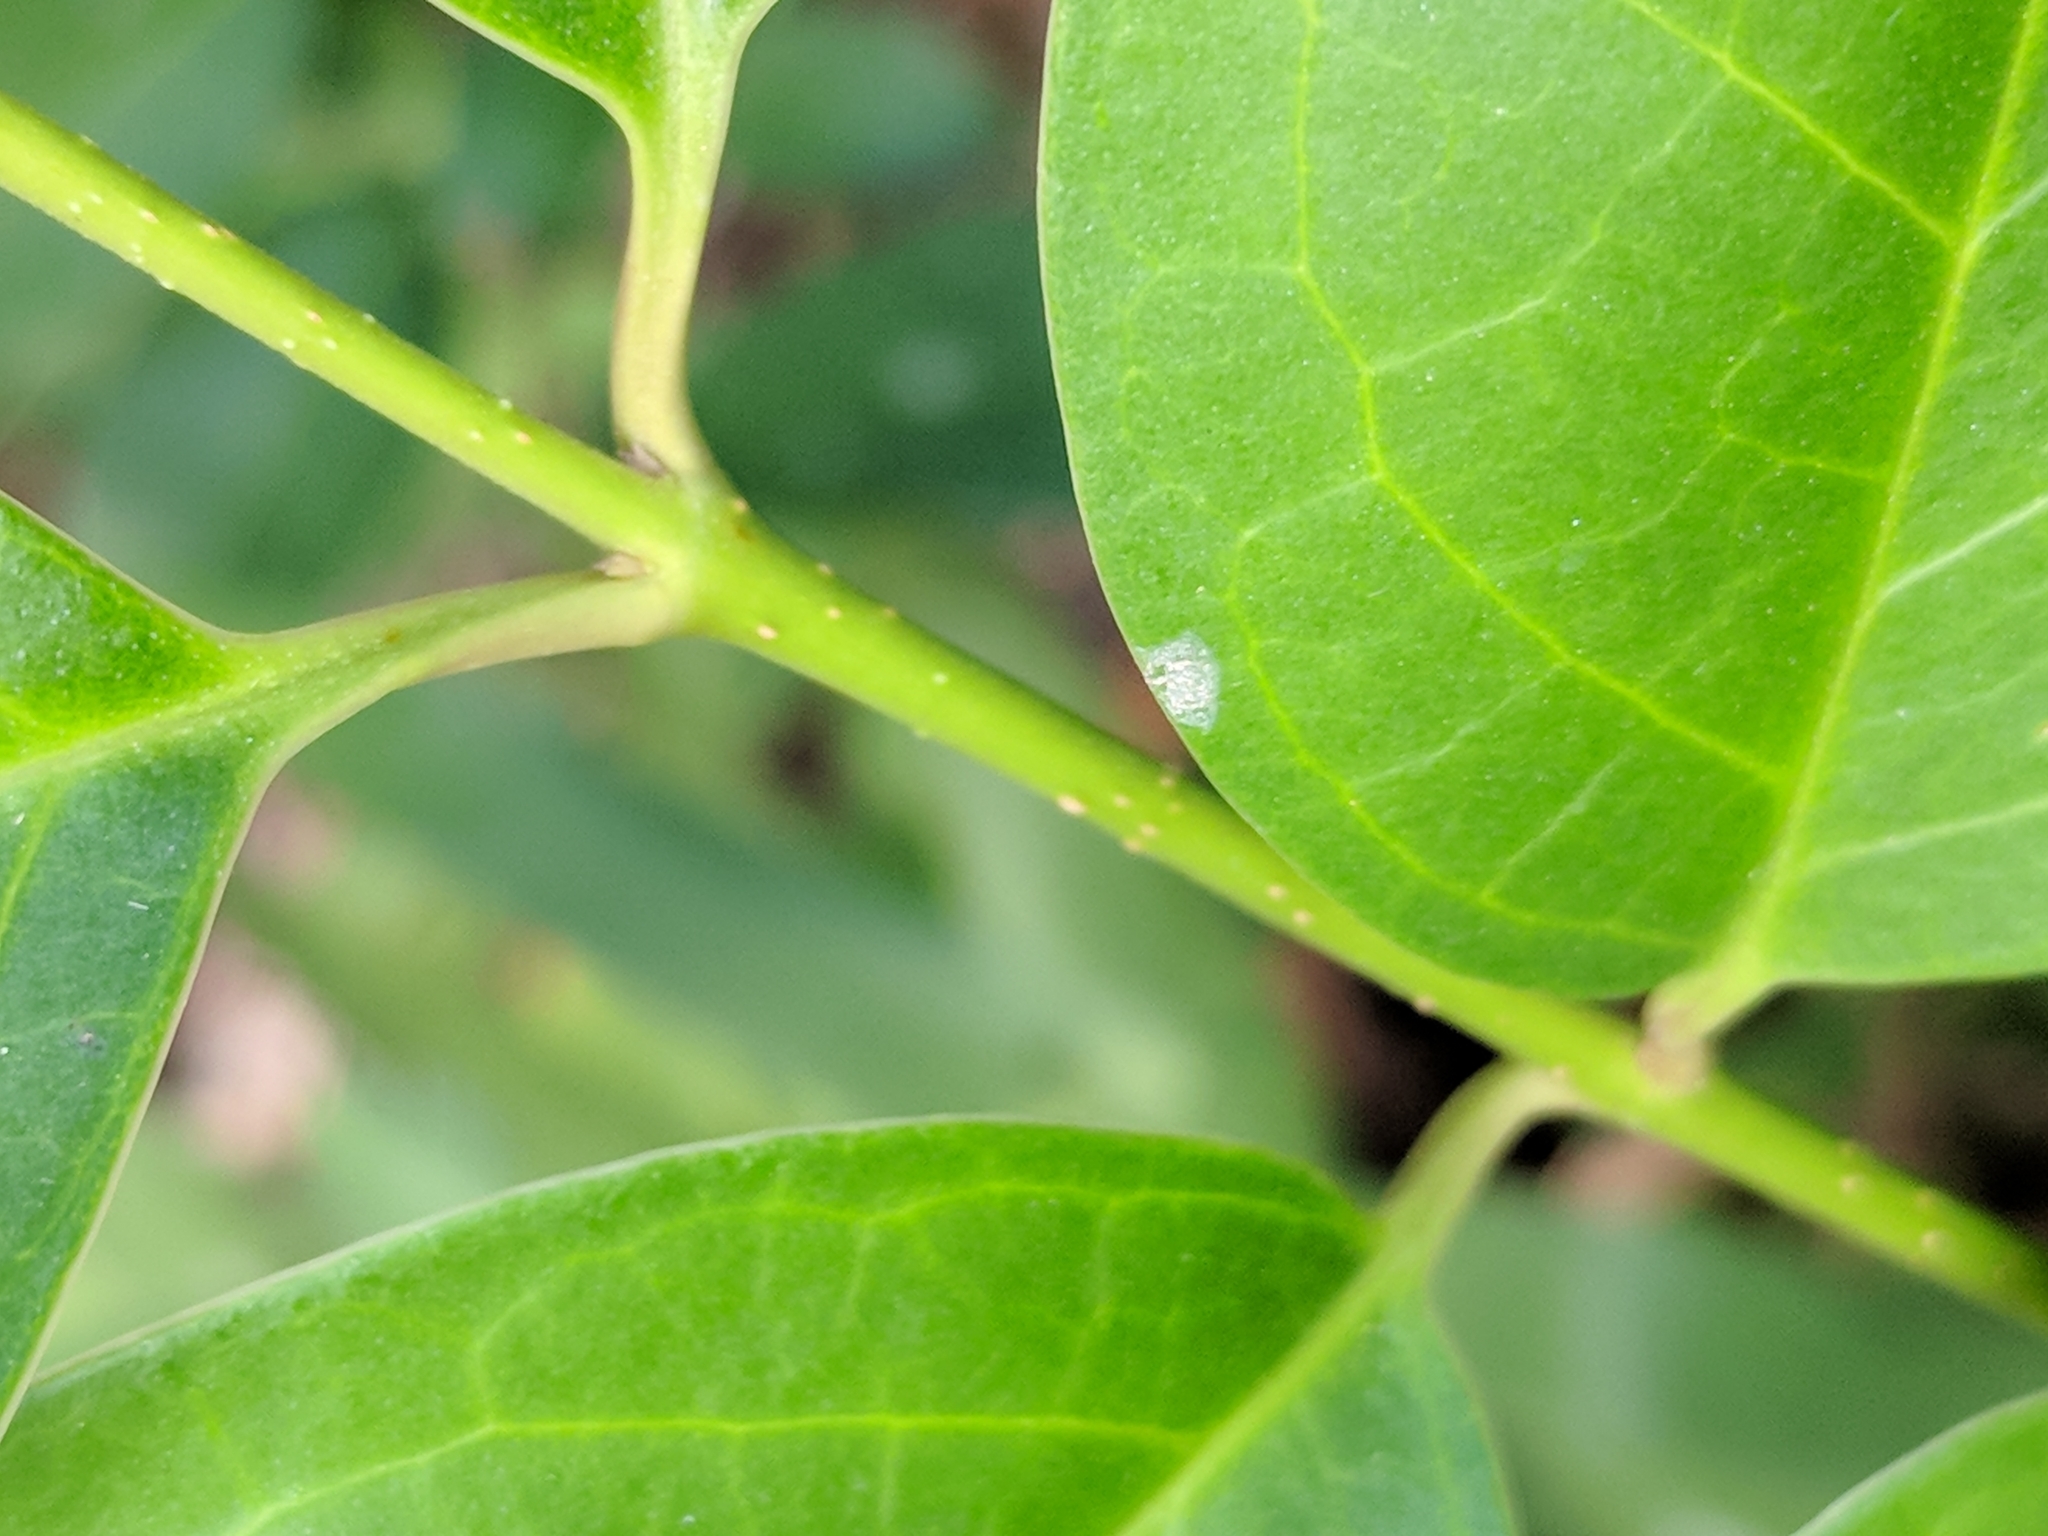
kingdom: Plantae
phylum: Tracheophyta
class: Magnoliopsida
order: Lamiales
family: Oleaceae
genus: Ligustrum
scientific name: Ligustrum lucidum
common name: Glossy privet
